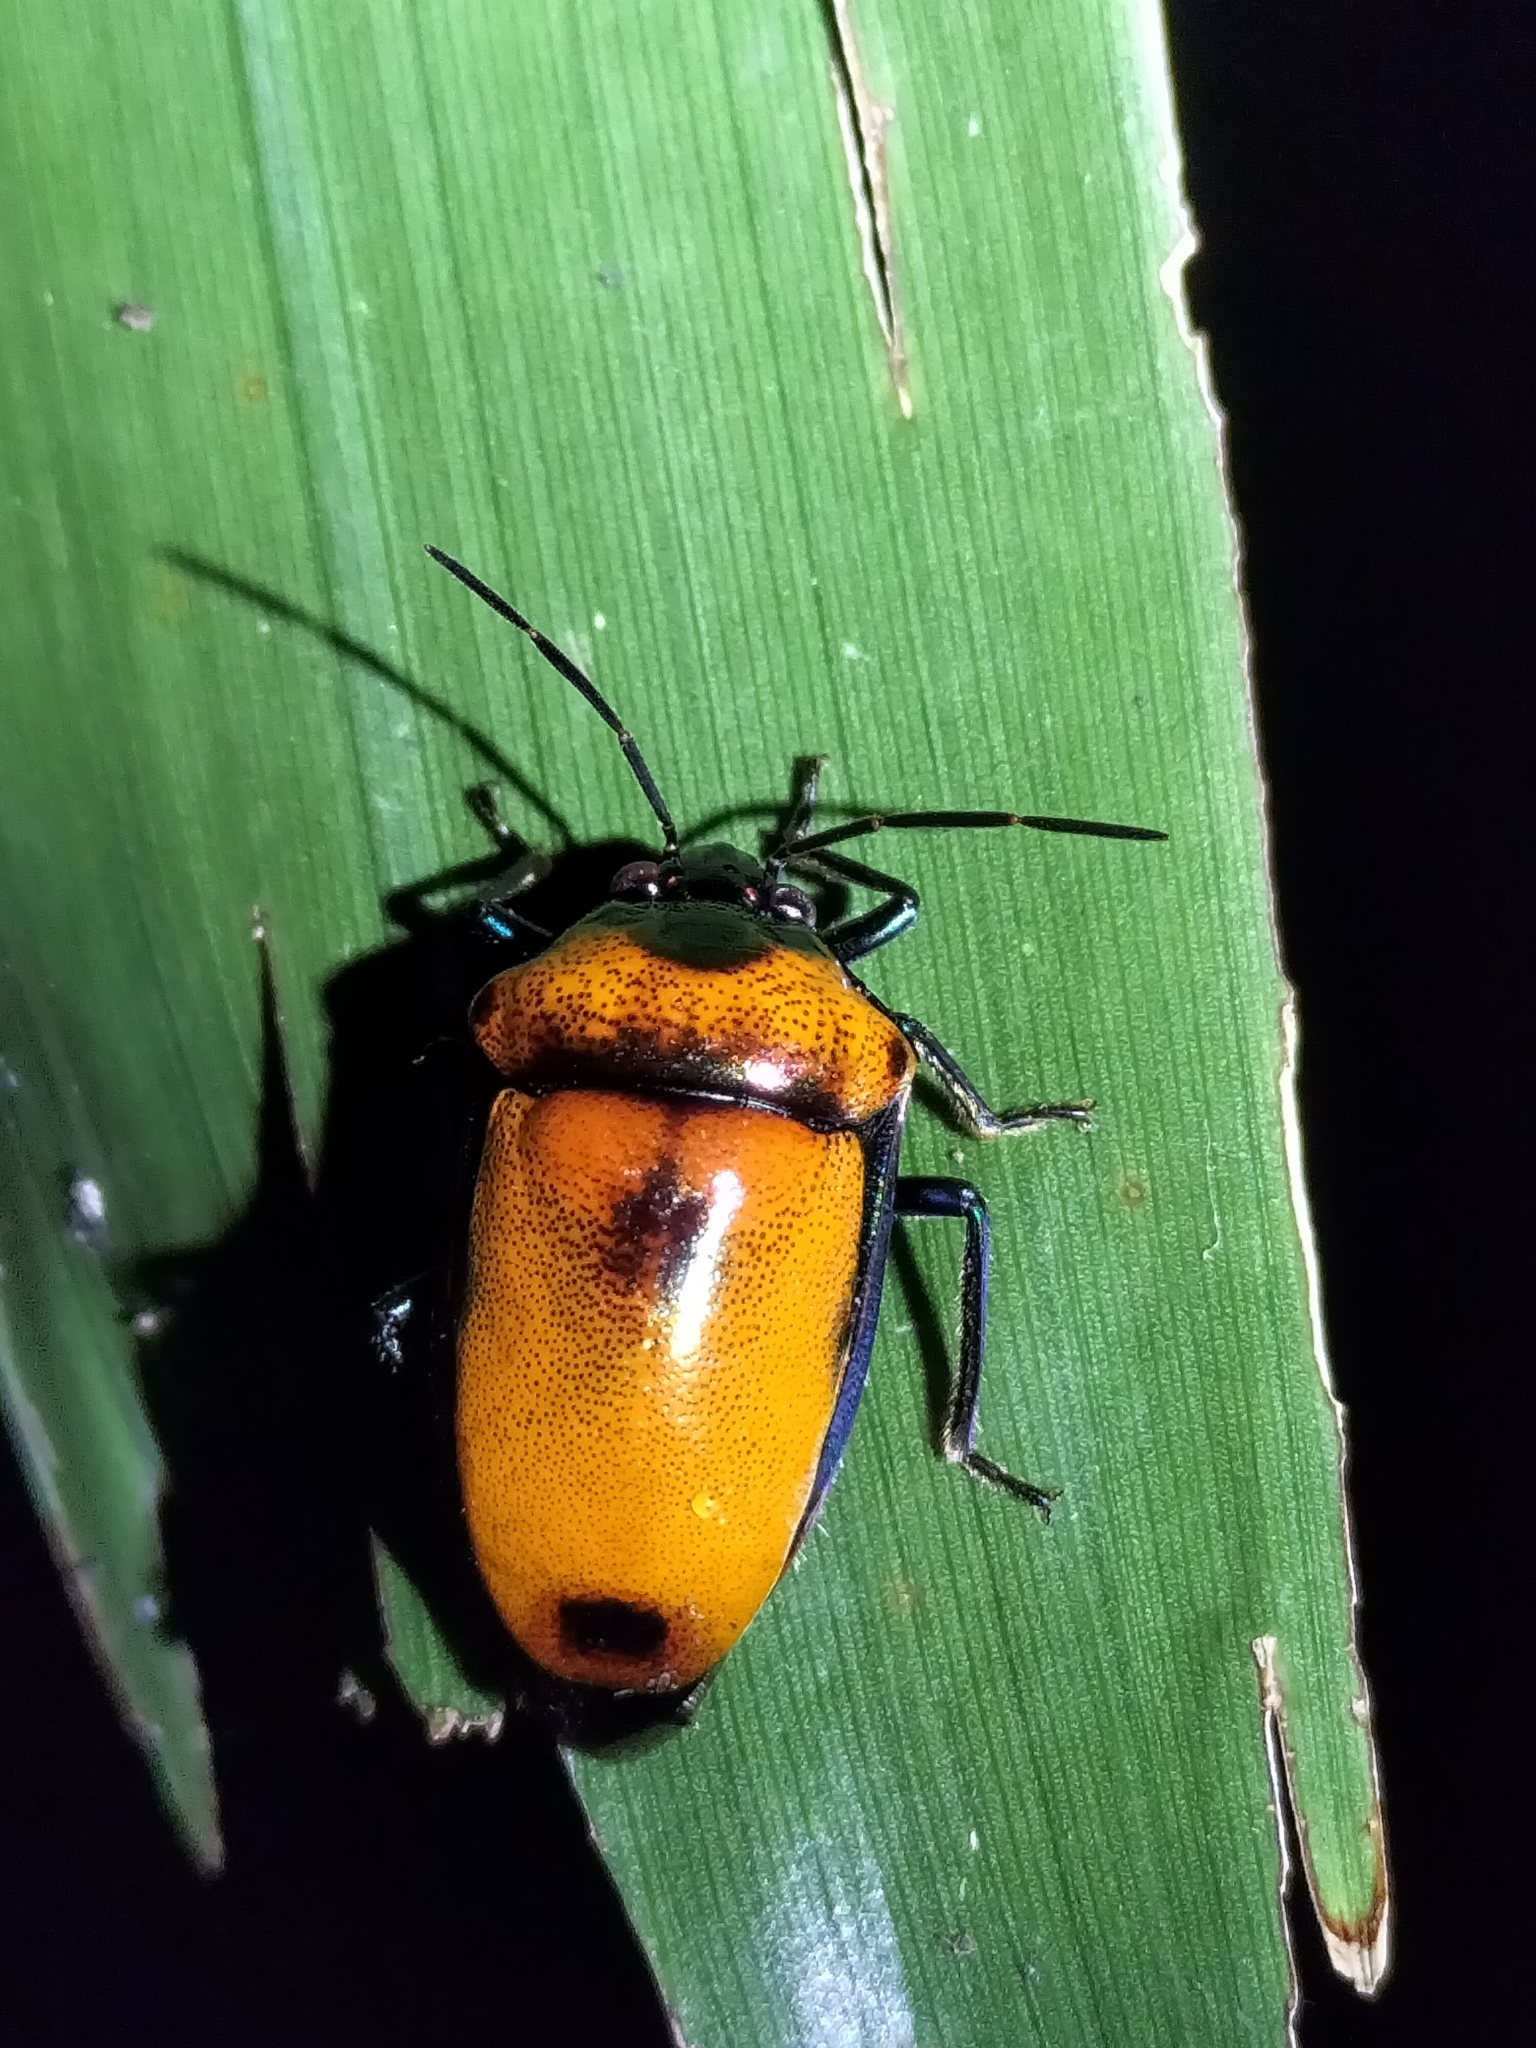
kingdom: Animalia
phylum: Arthropoda
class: Insecta
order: Hemiptera
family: Scutelleridae
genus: Calliphara
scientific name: Calliphara regalis
